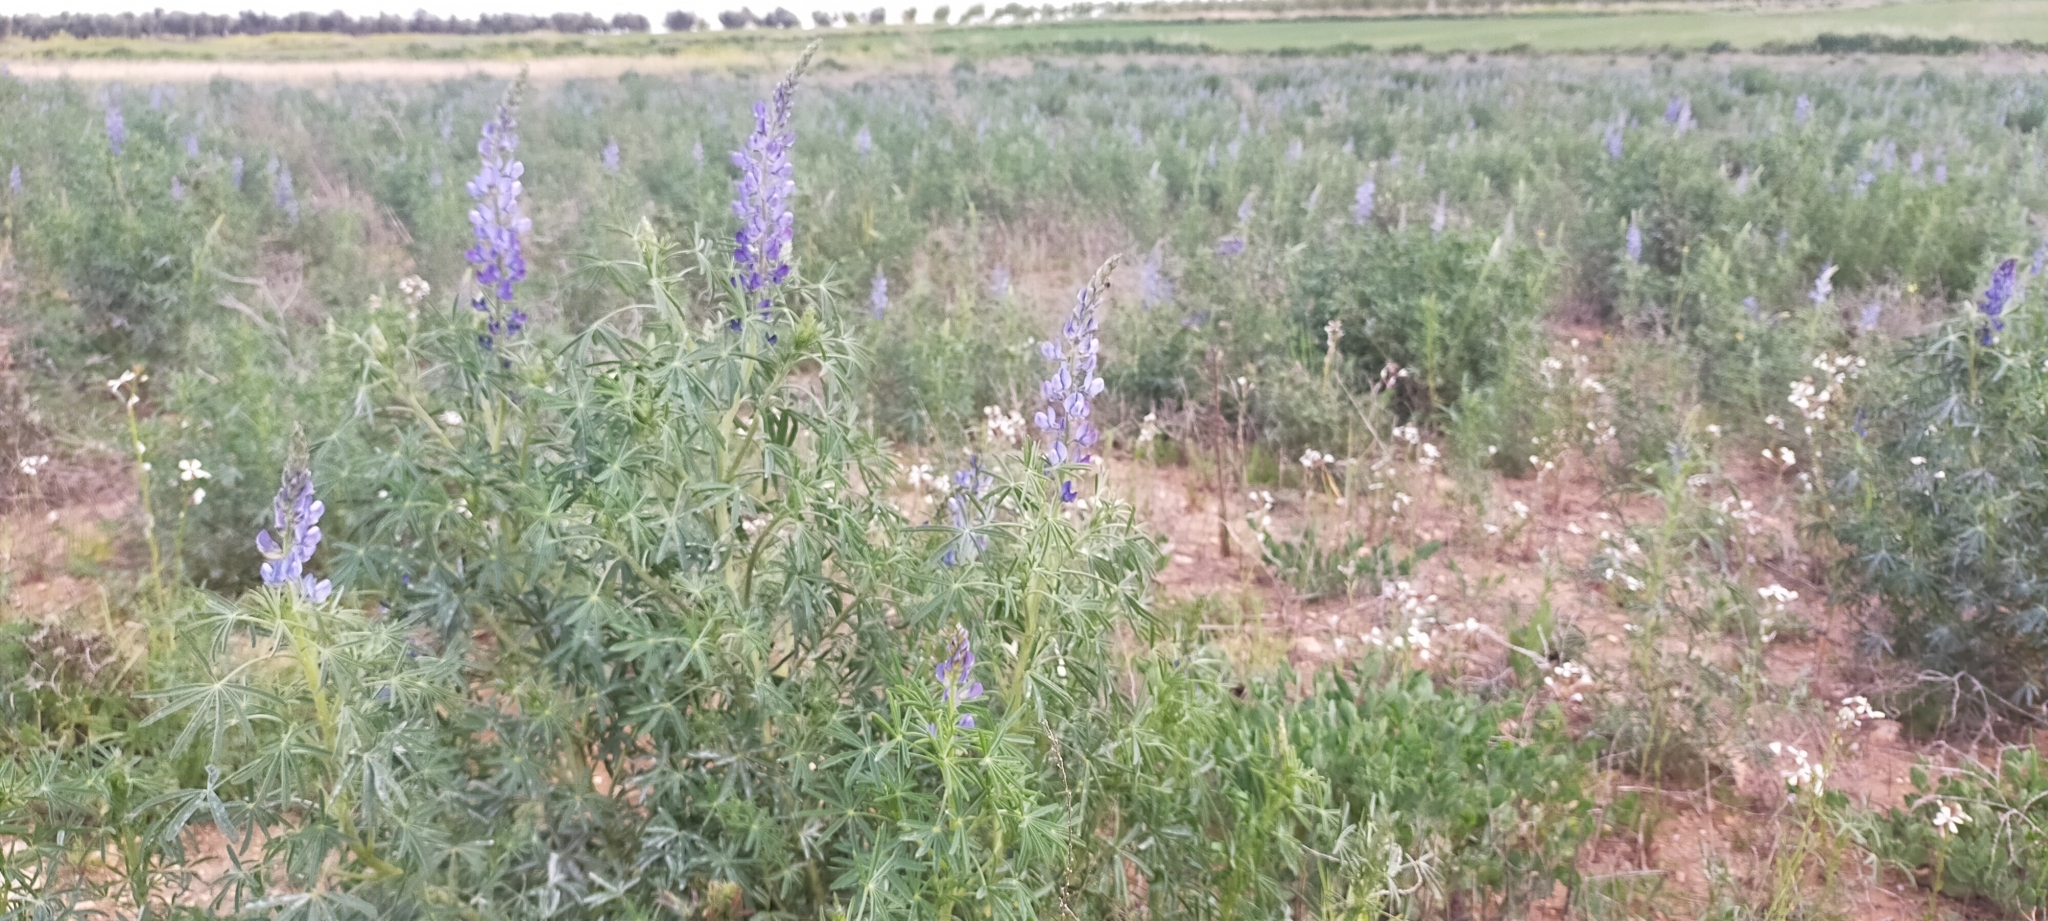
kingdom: Plantae
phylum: Tracheophyta
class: Magnoliopsida
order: Fabales
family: Fabaceae
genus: Lupinus
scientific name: Lupinus angustifolius
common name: Narrow-leaved lupin
